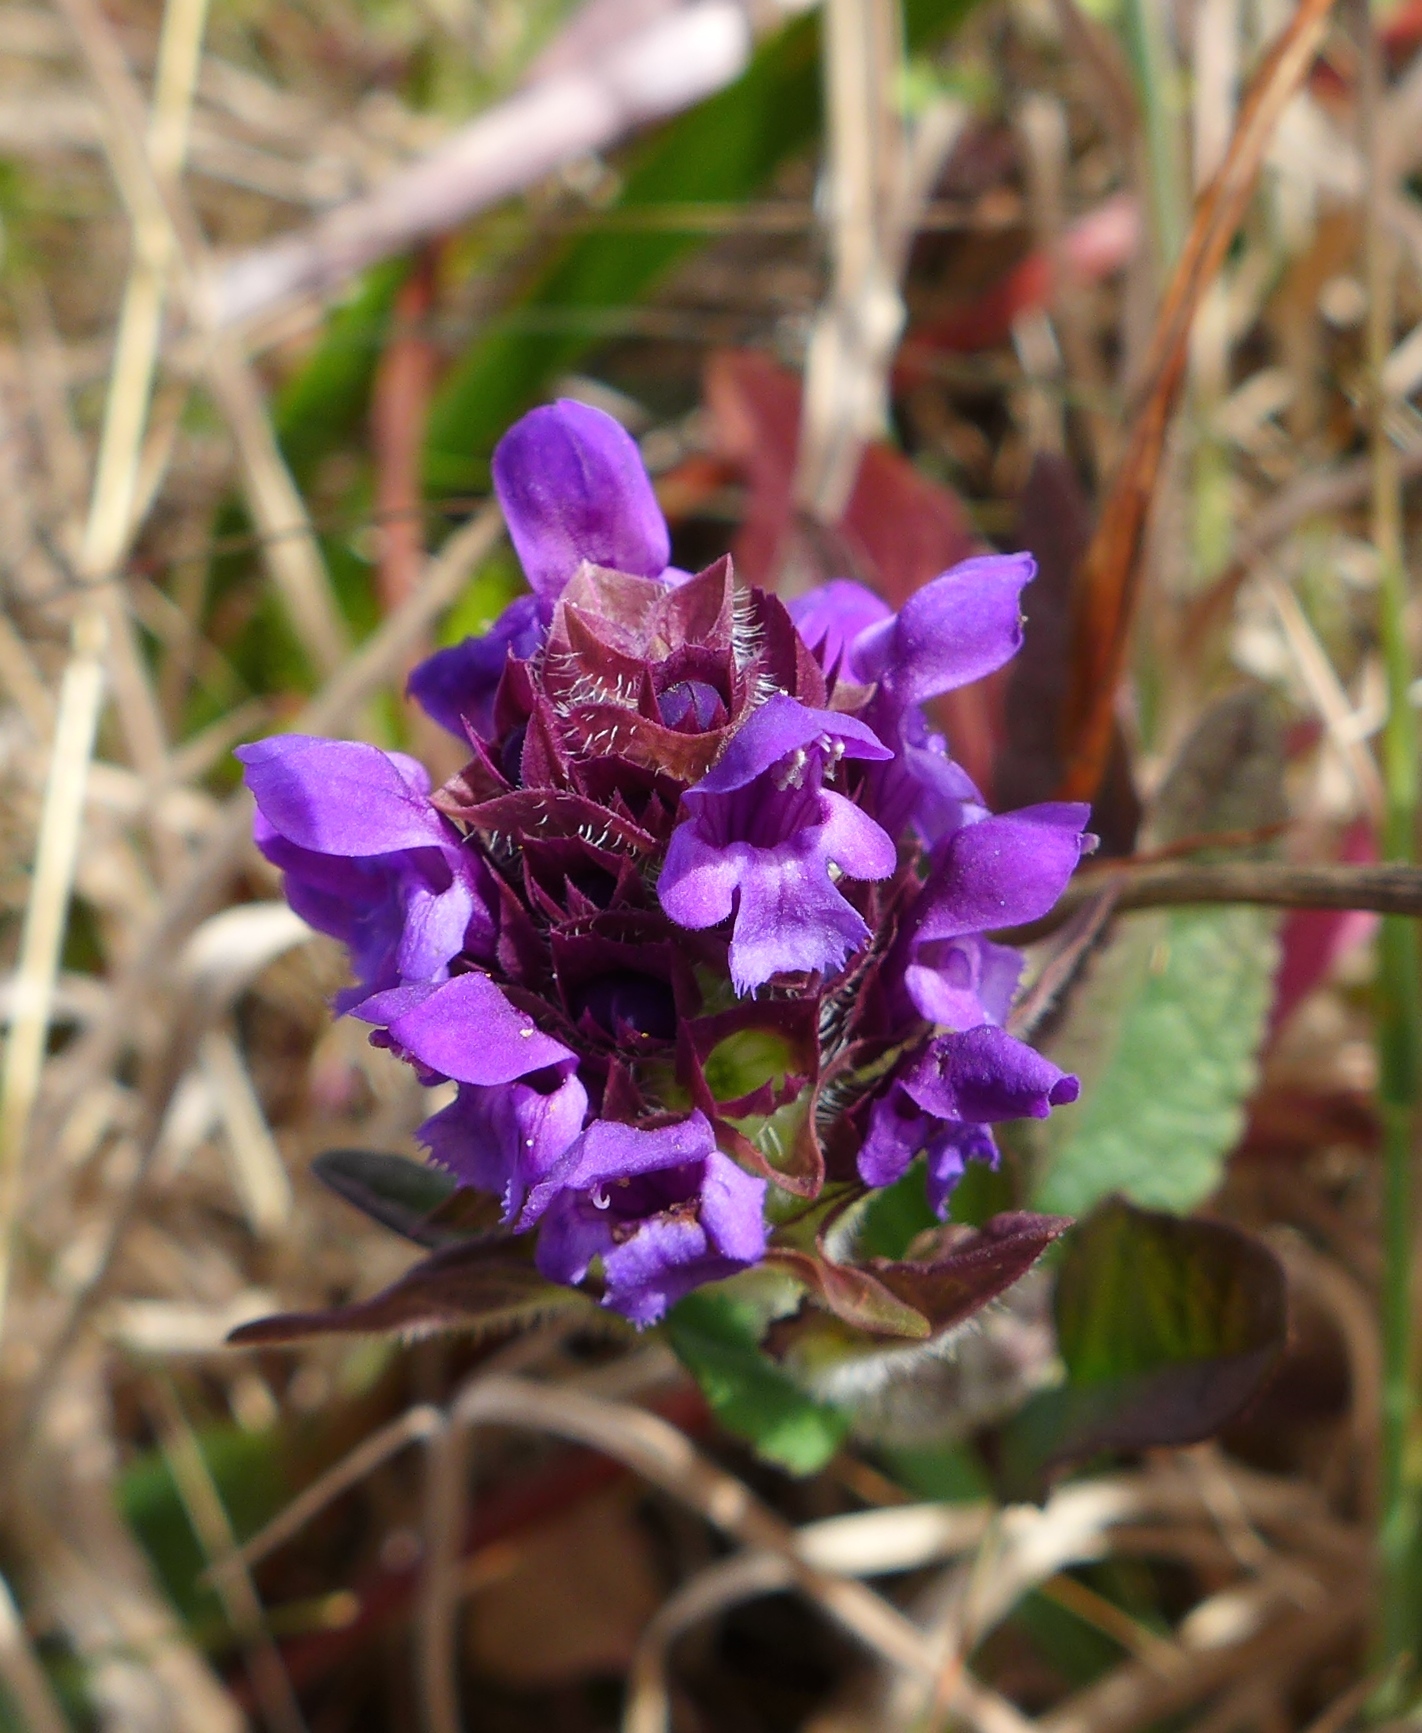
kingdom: Plantae
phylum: Tracheophyta
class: Magnoliopsida
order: Lamiales
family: Lamiaceae
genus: Prunella
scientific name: Prunella vulgaris
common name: Heal-all
